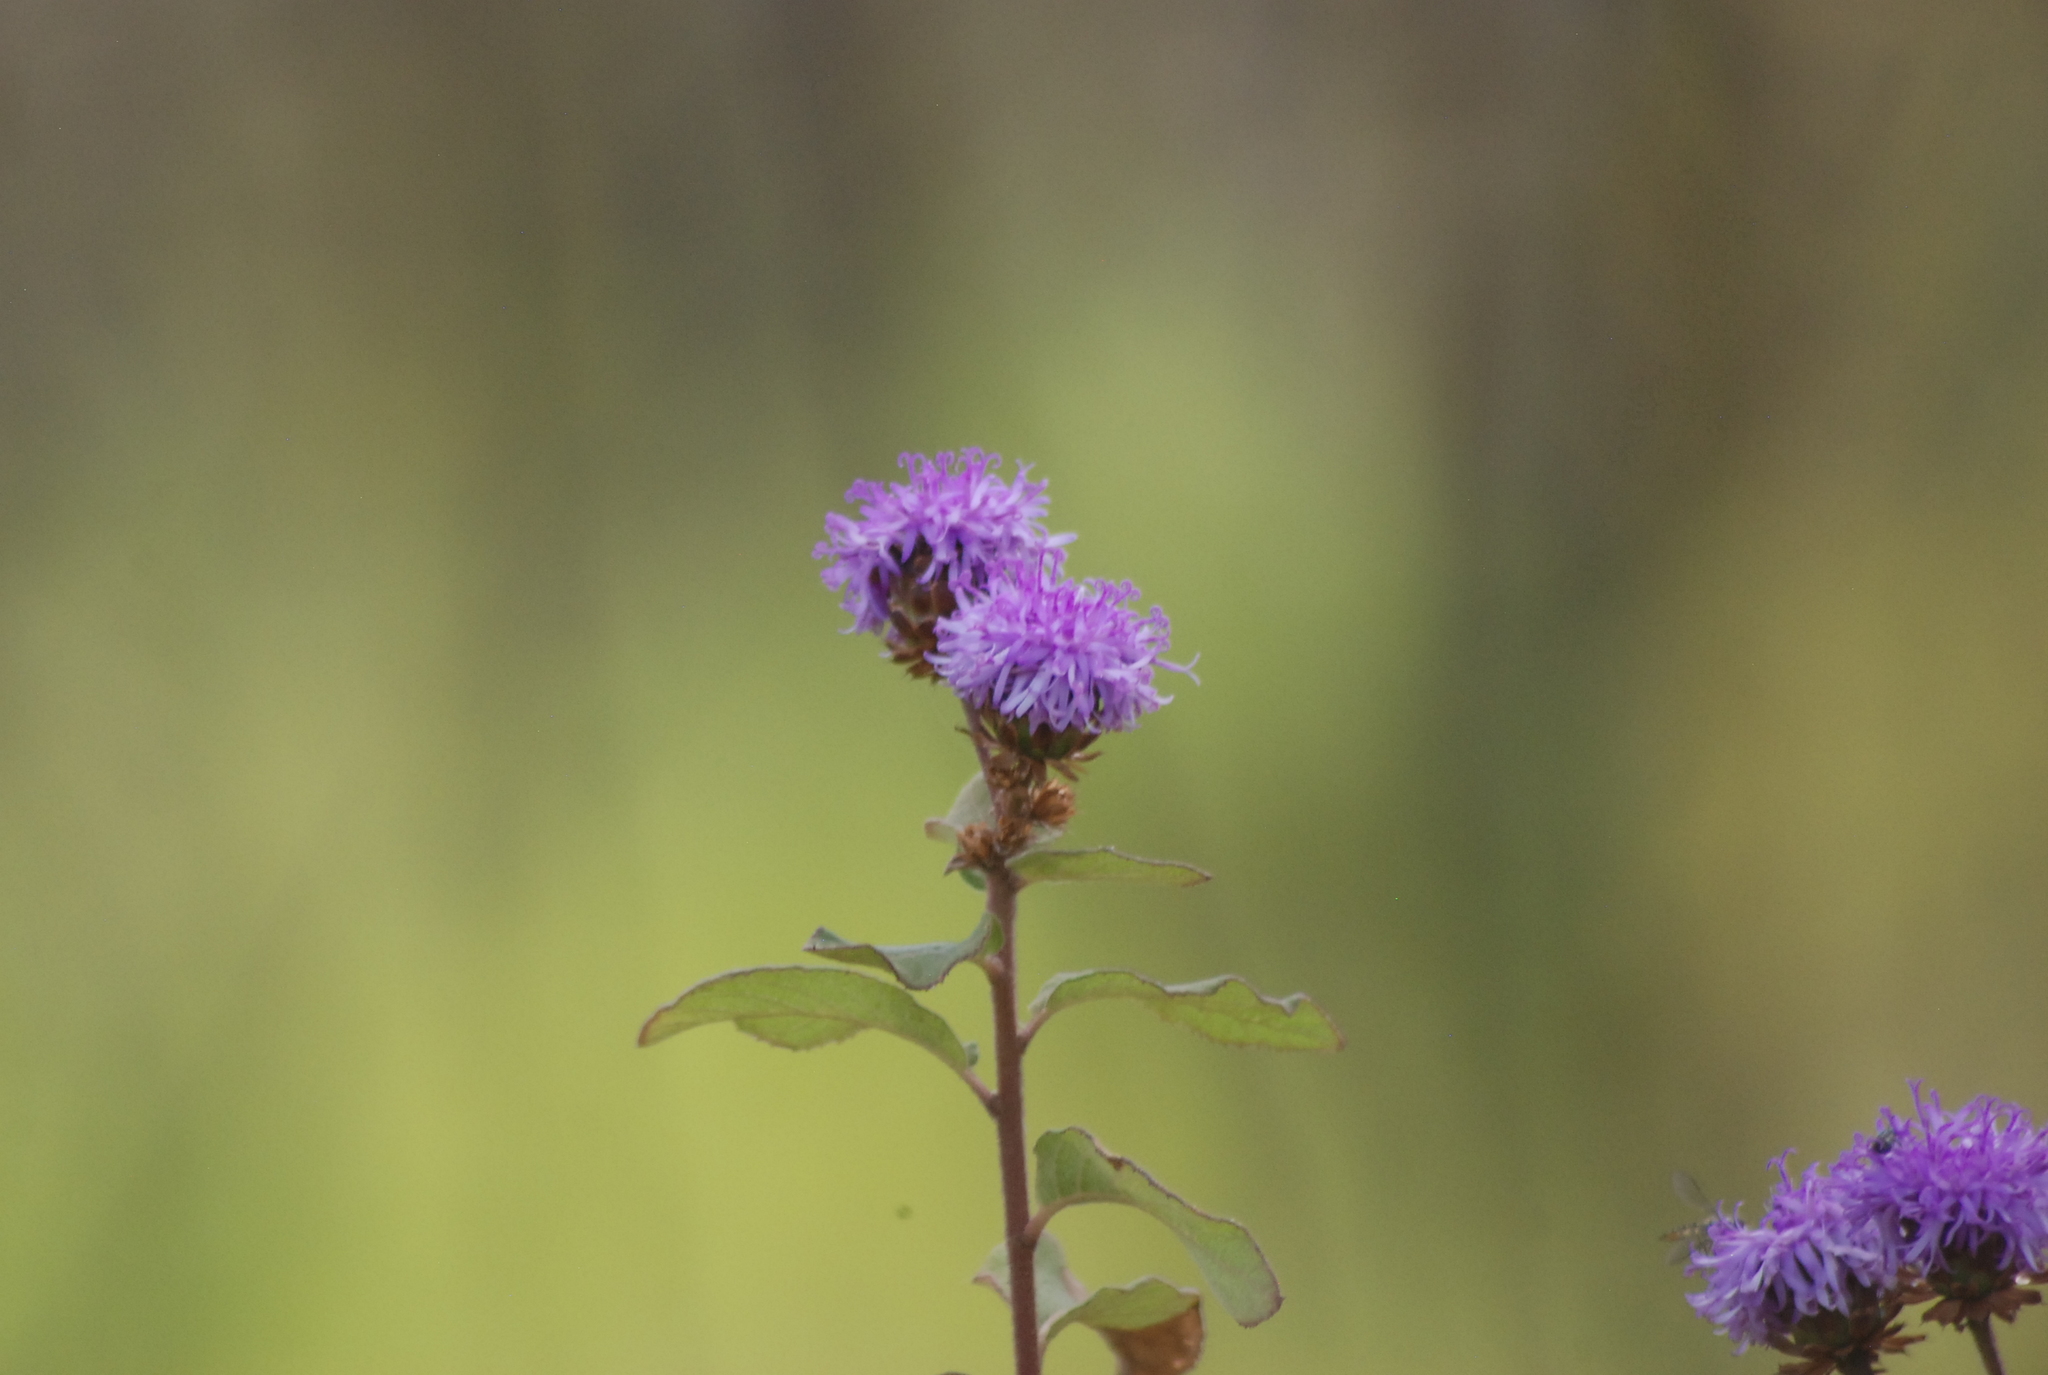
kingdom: Plantae
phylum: Tracheophyta
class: Magnoliopsida
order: Asterales
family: Asteraceae
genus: Vernonanthura
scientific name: Vernonanthura alamanii
